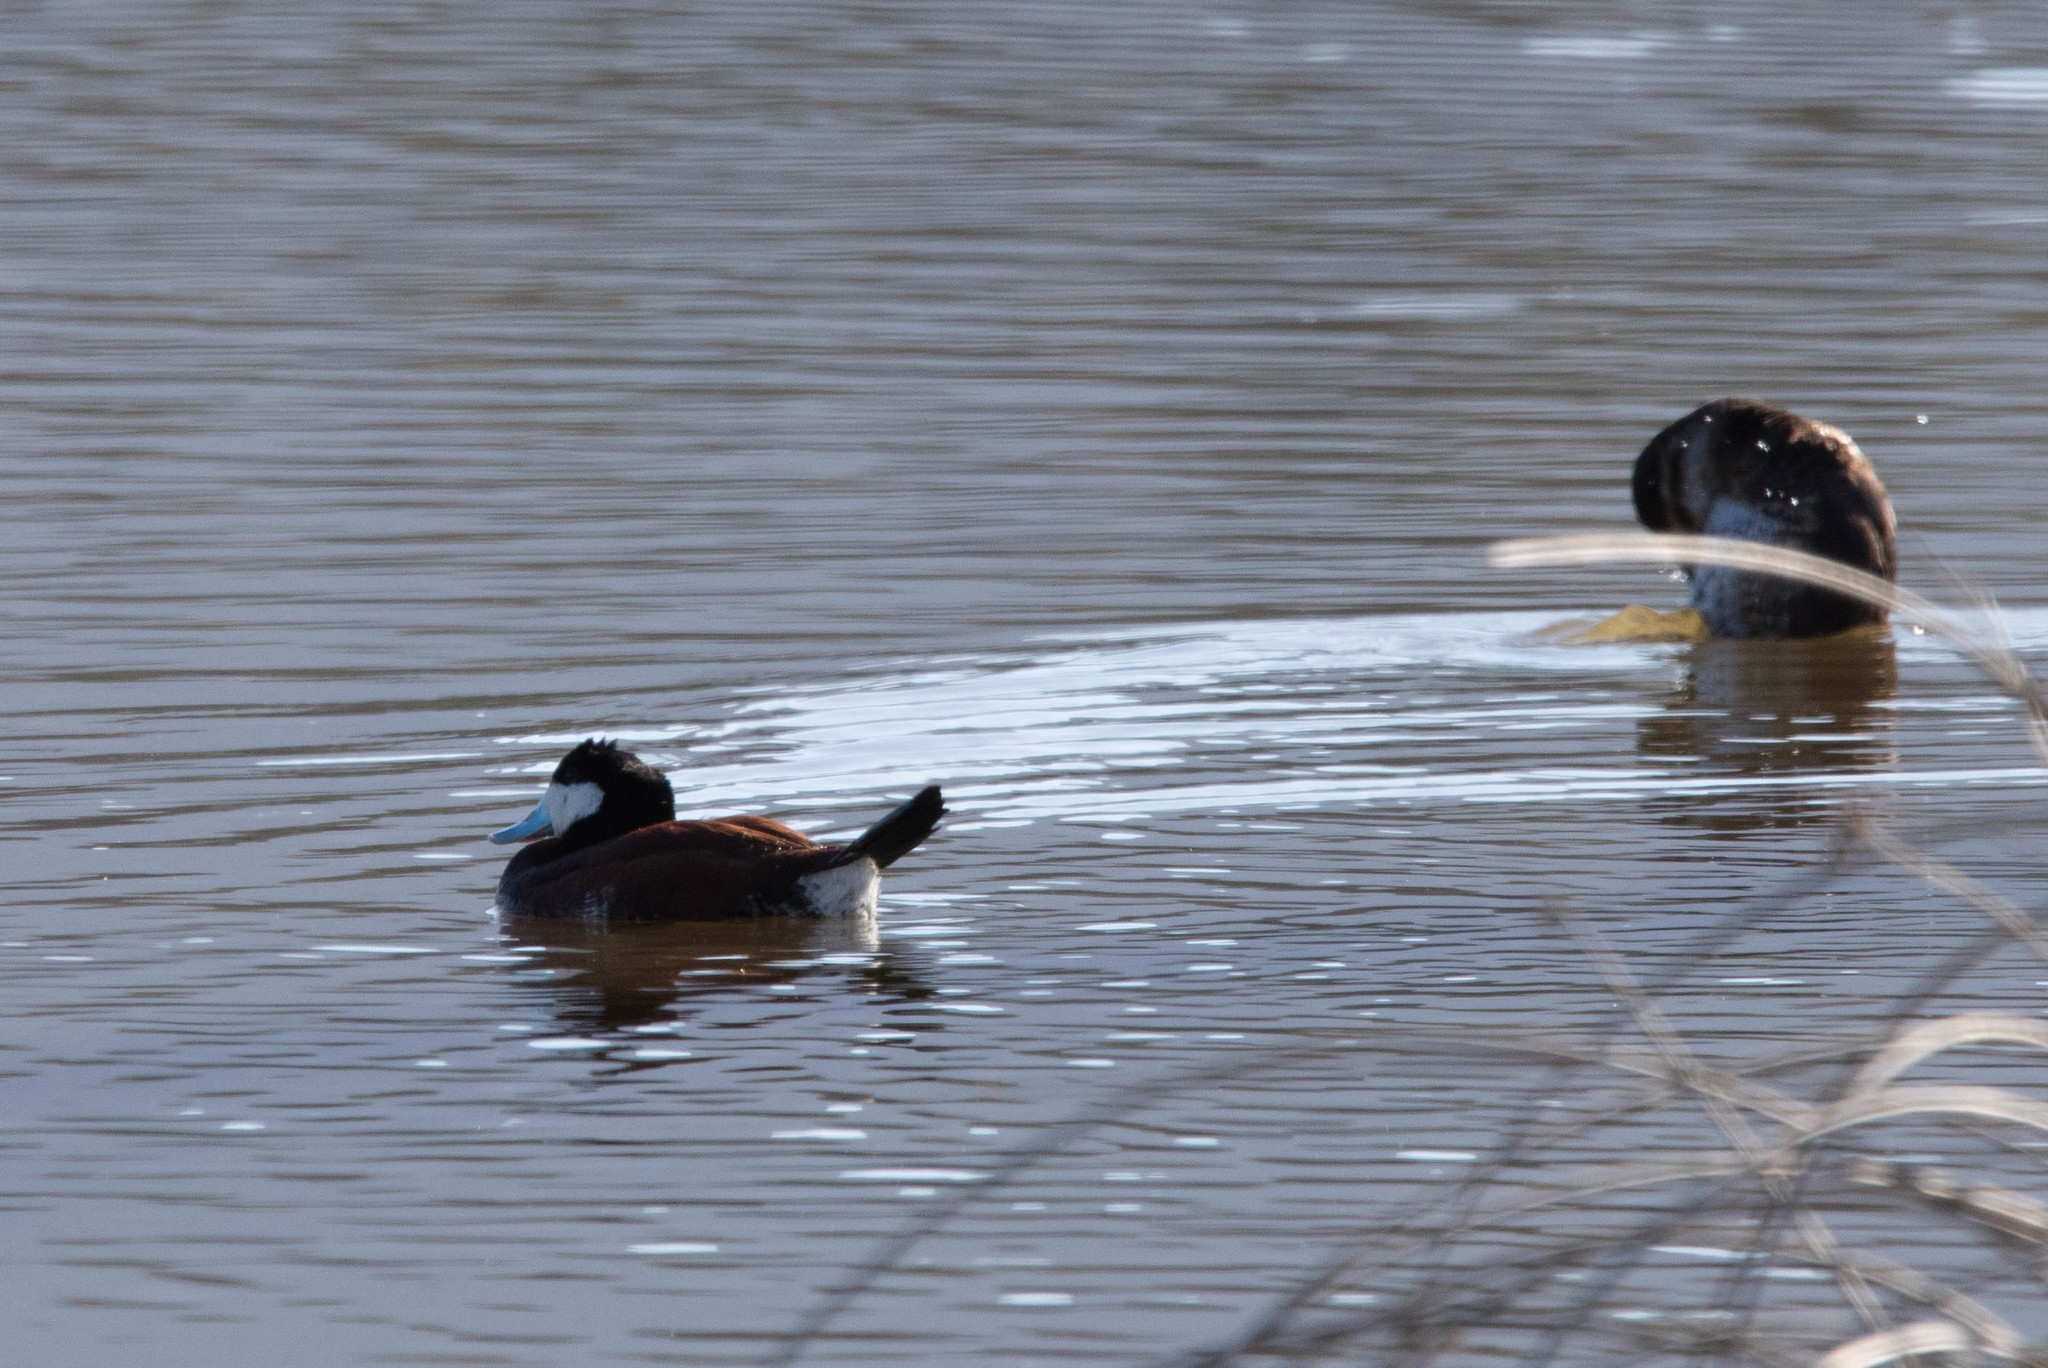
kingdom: Animalia
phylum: Chordata
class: Aves
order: Anseriformes
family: Anatidae
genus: Oxyura
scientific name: Oxyura jamaicensis
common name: Ruddy duck
